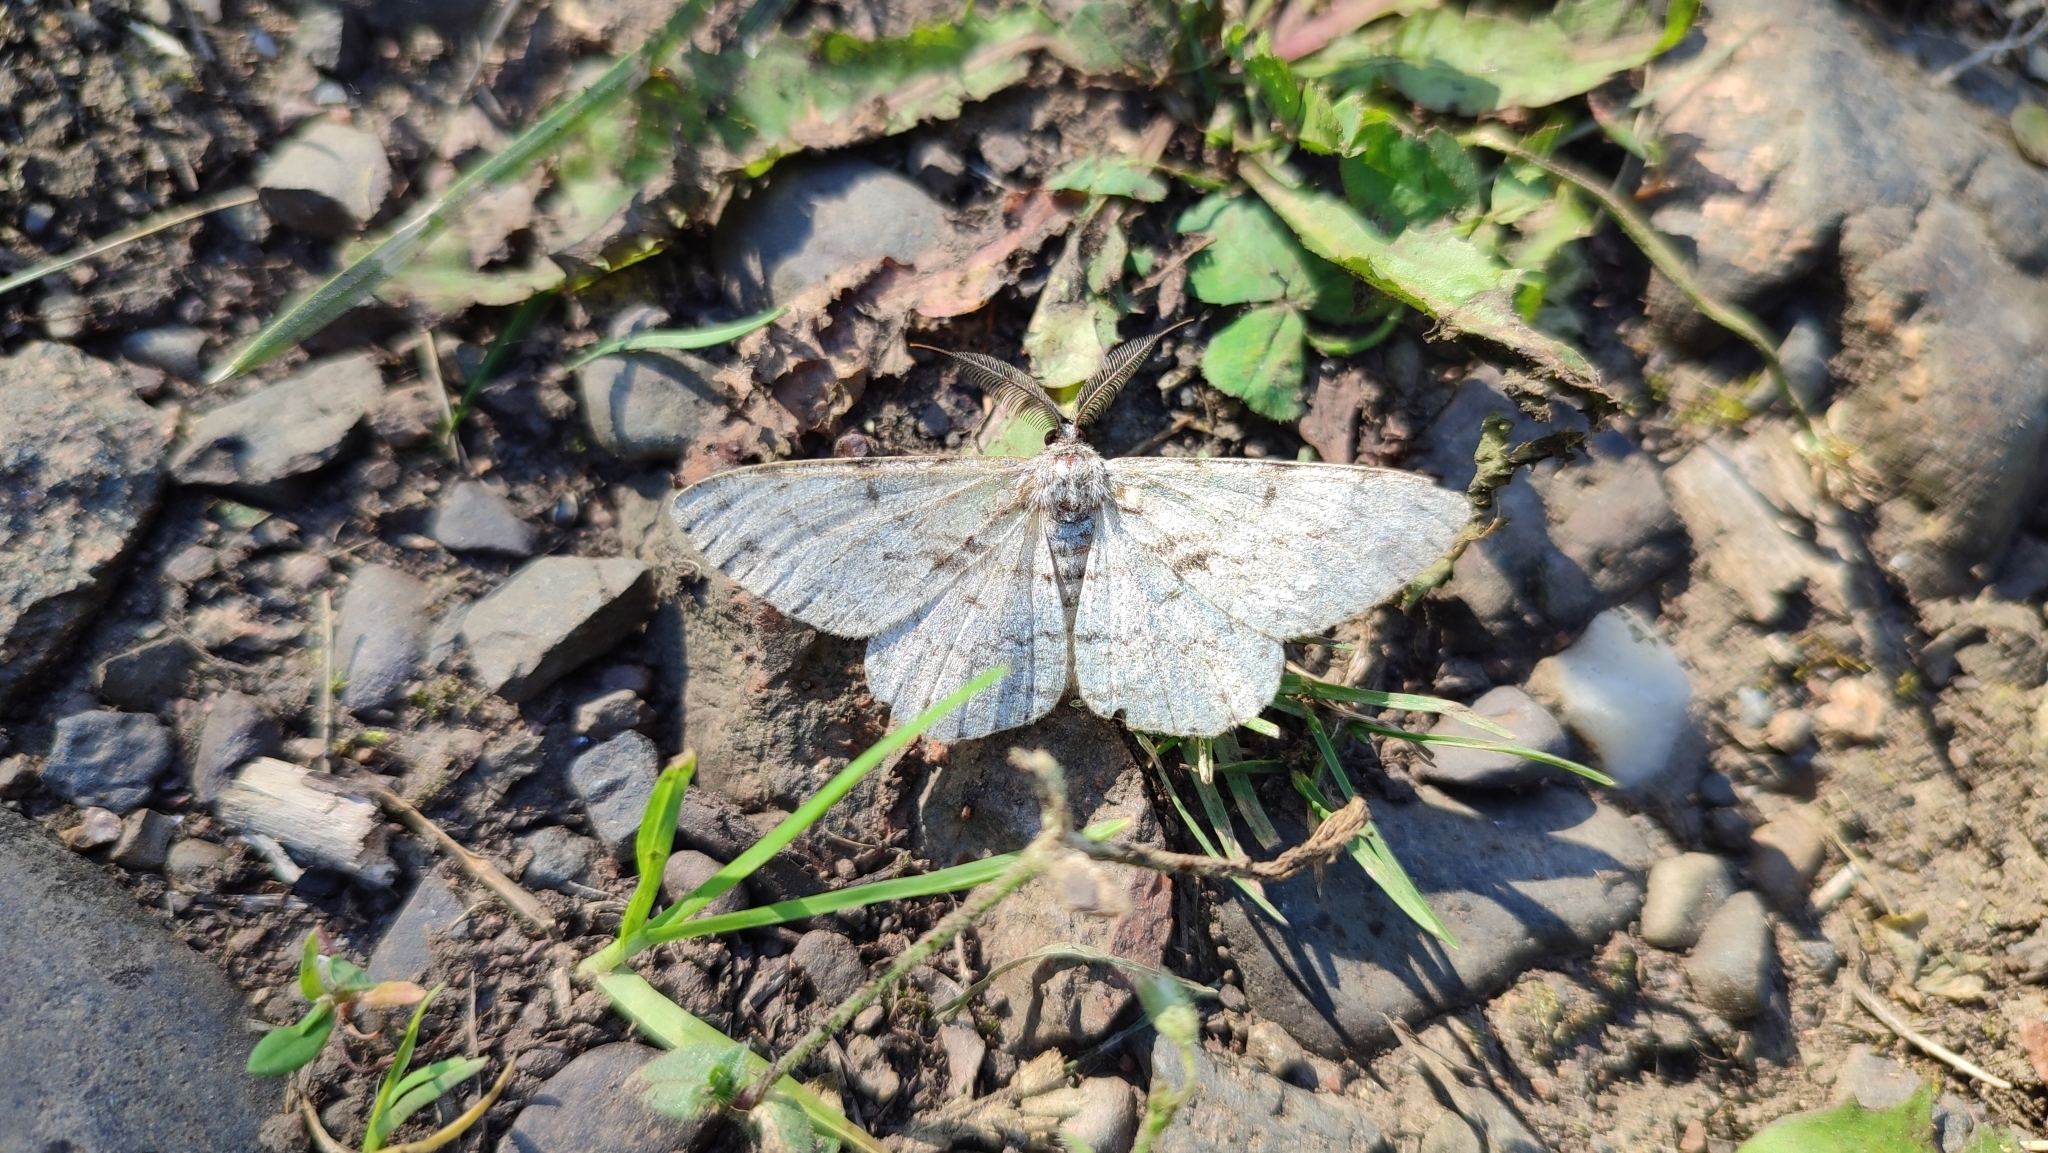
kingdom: Animalia
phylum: Arthropoda
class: Insecta
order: Lepidoptera
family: Geometridae
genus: Hypomecis
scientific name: Hypomecis roboraria
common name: Great oak beauty
